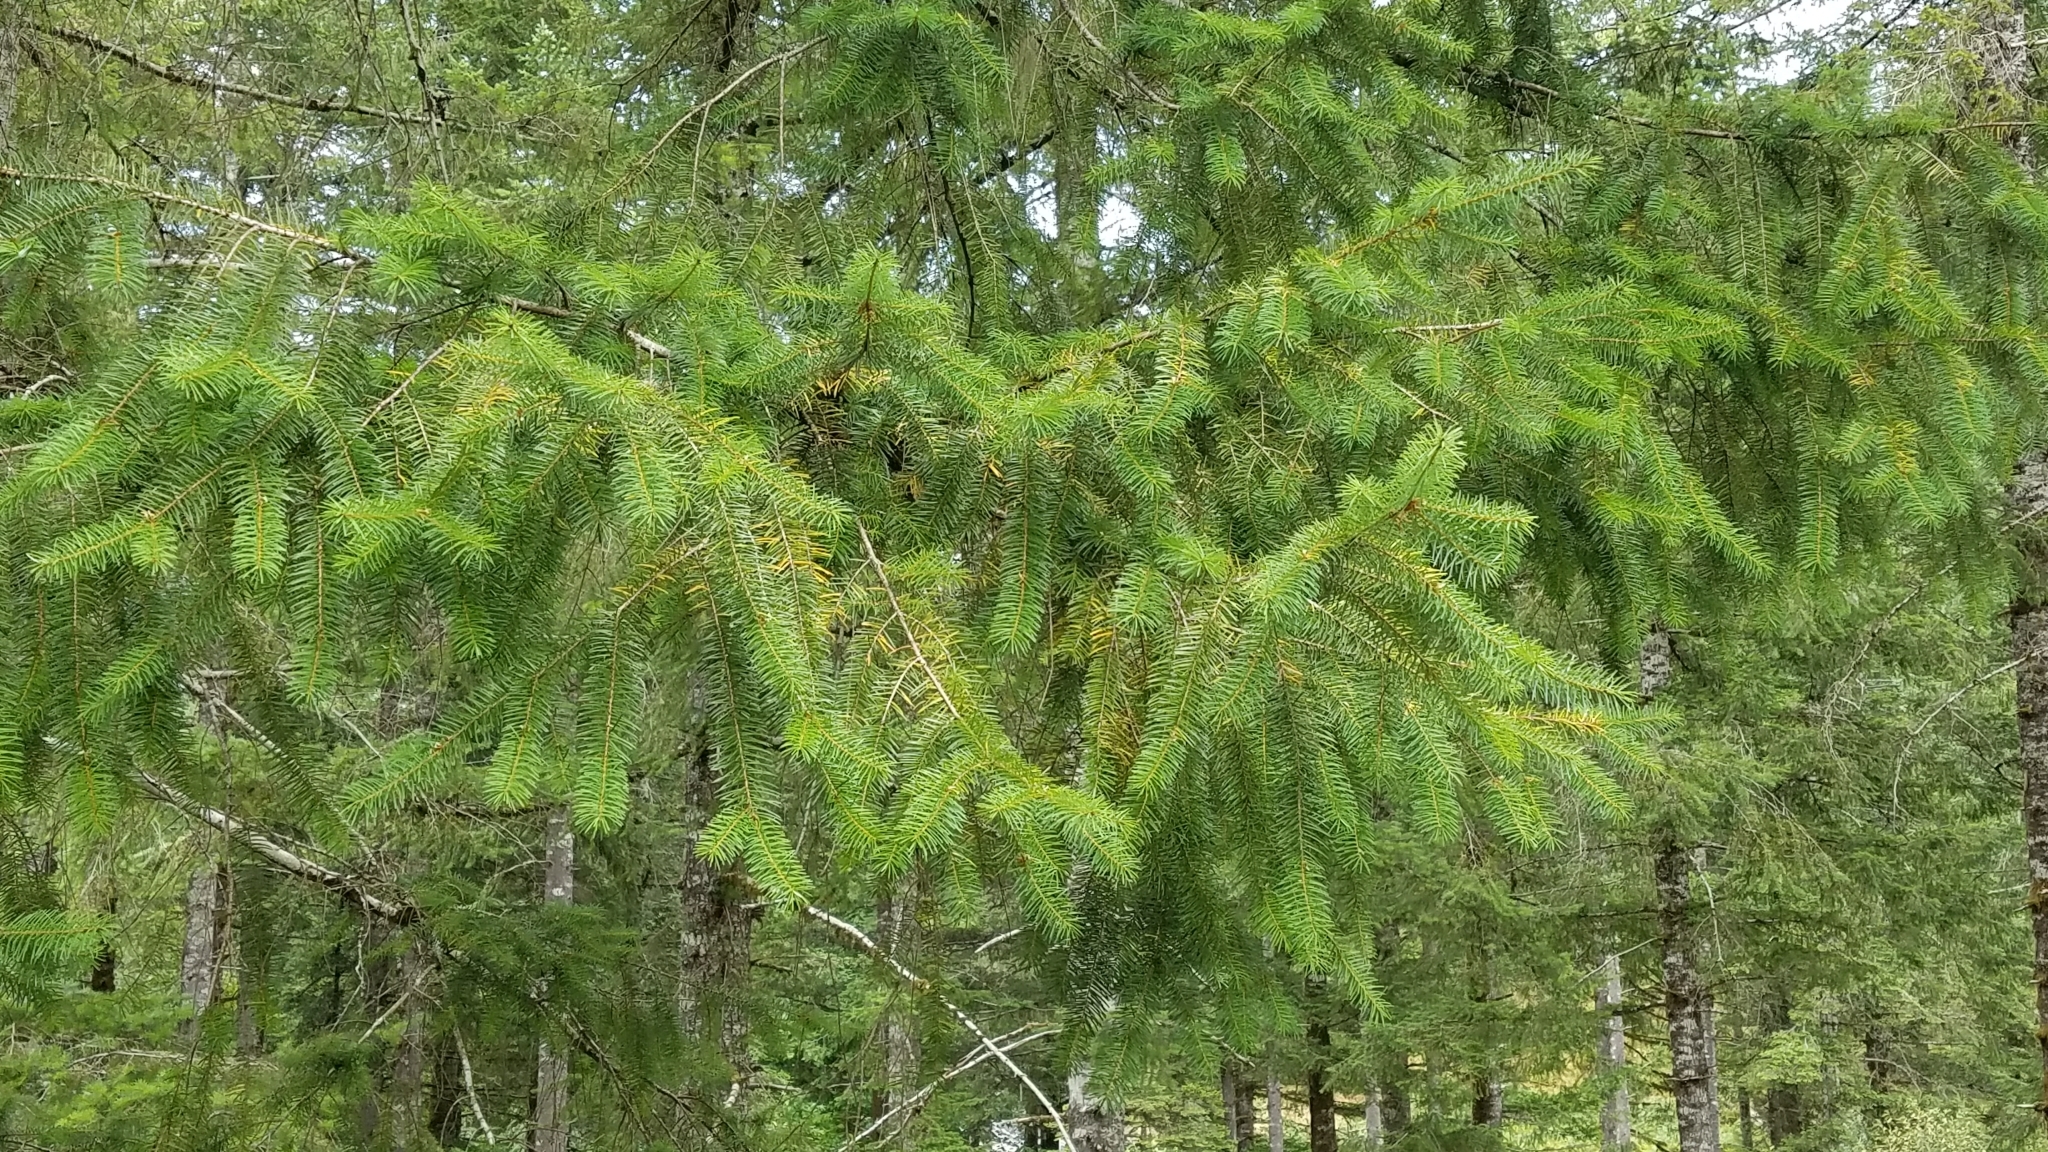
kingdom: Plantae
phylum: Tracheophyta
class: Pinopsida
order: Pinales
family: Pinaceae
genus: Pseudotsuga
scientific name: Pseudotsuga menziesii
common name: Douglas fir
